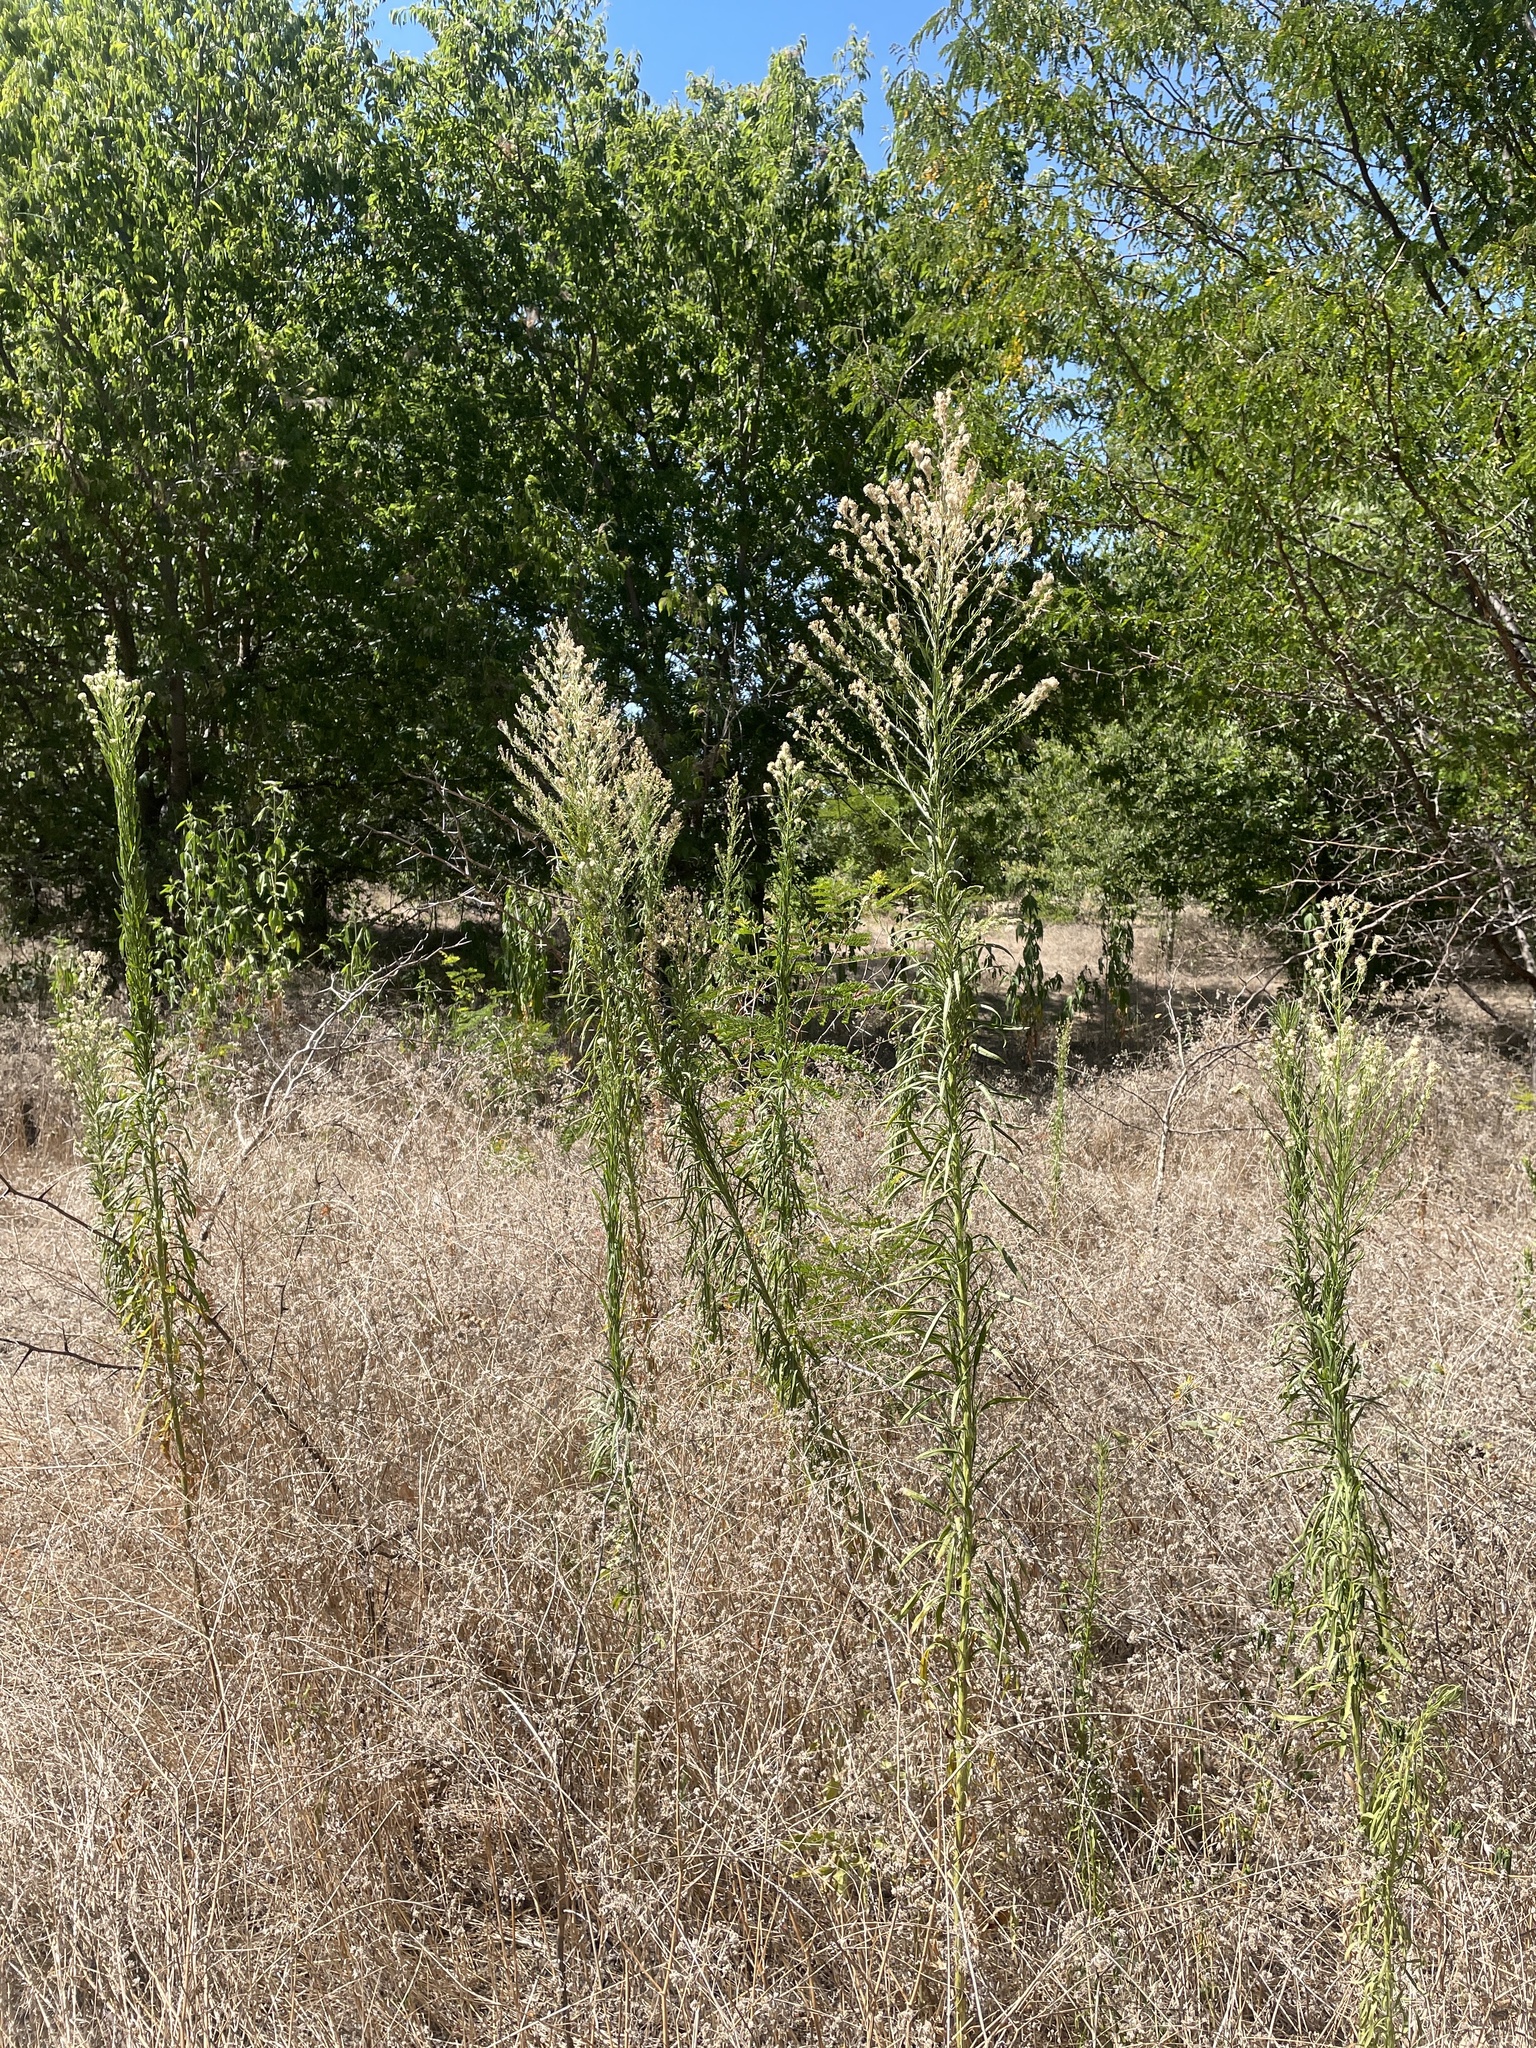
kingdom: Plantae
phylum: Tracheophyta
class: Magnoliopsida
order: Asterales
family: Asteraceae
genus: Erigeron
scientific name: Erigeron canadensis
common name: Canadian fleabane
